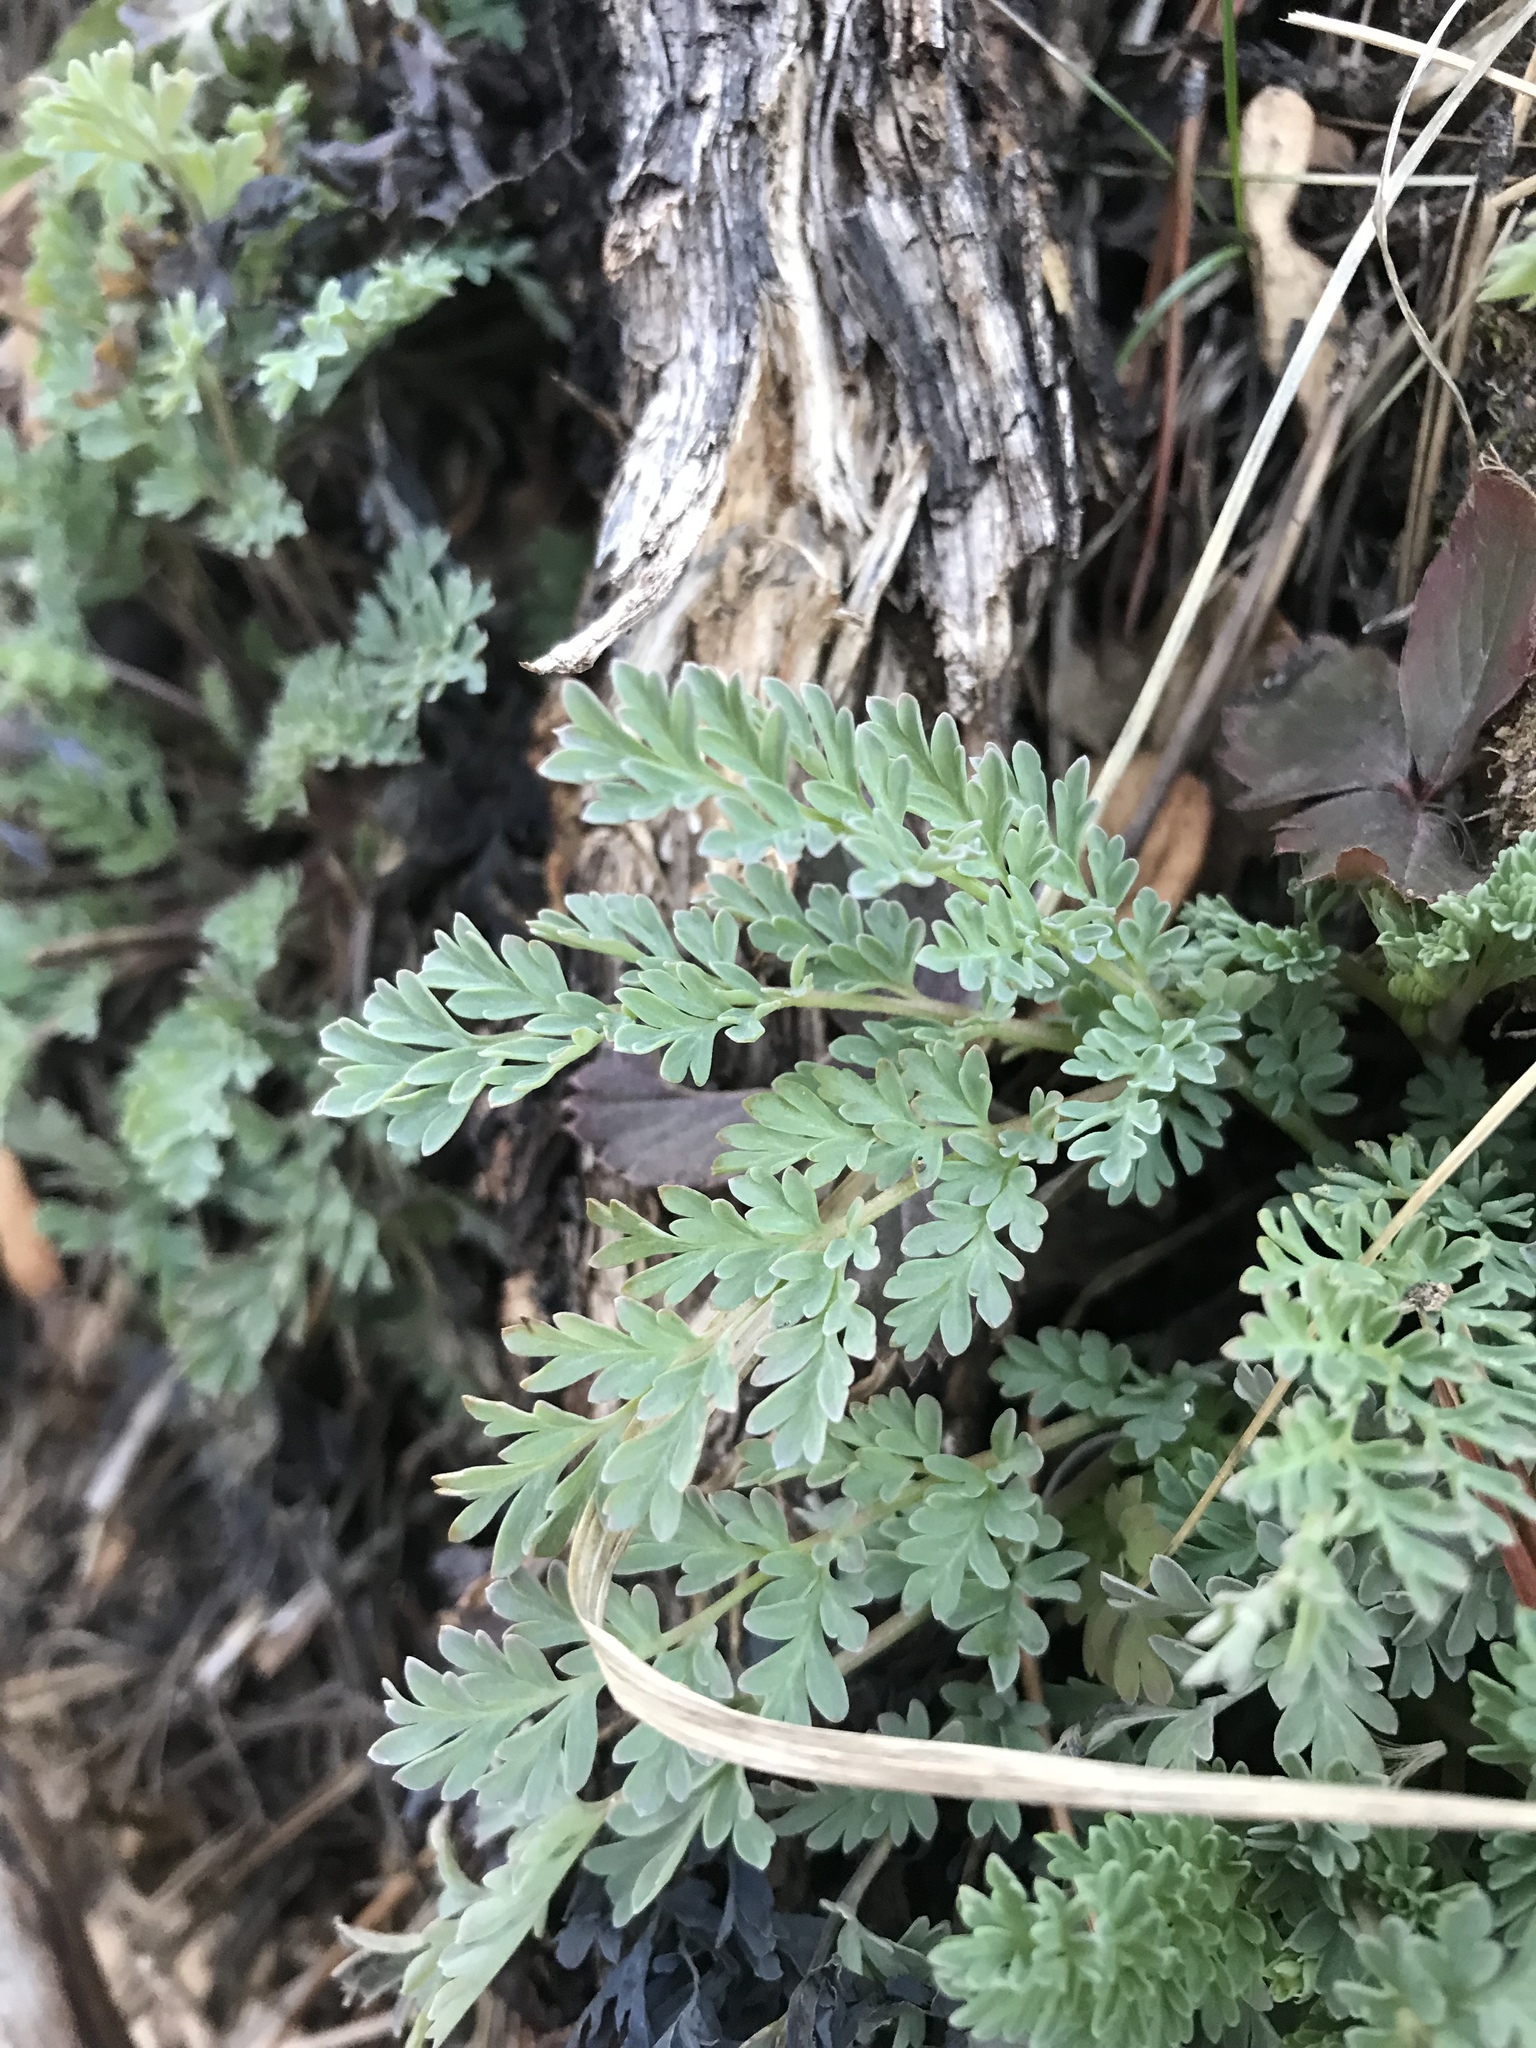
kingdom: Plantae
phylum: Tracheophyta
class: Magnoliopsida
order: Ranunculales
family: Papaveraceae
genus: Corydalis
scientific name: Corydalis aurea
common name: Golden corydalis
